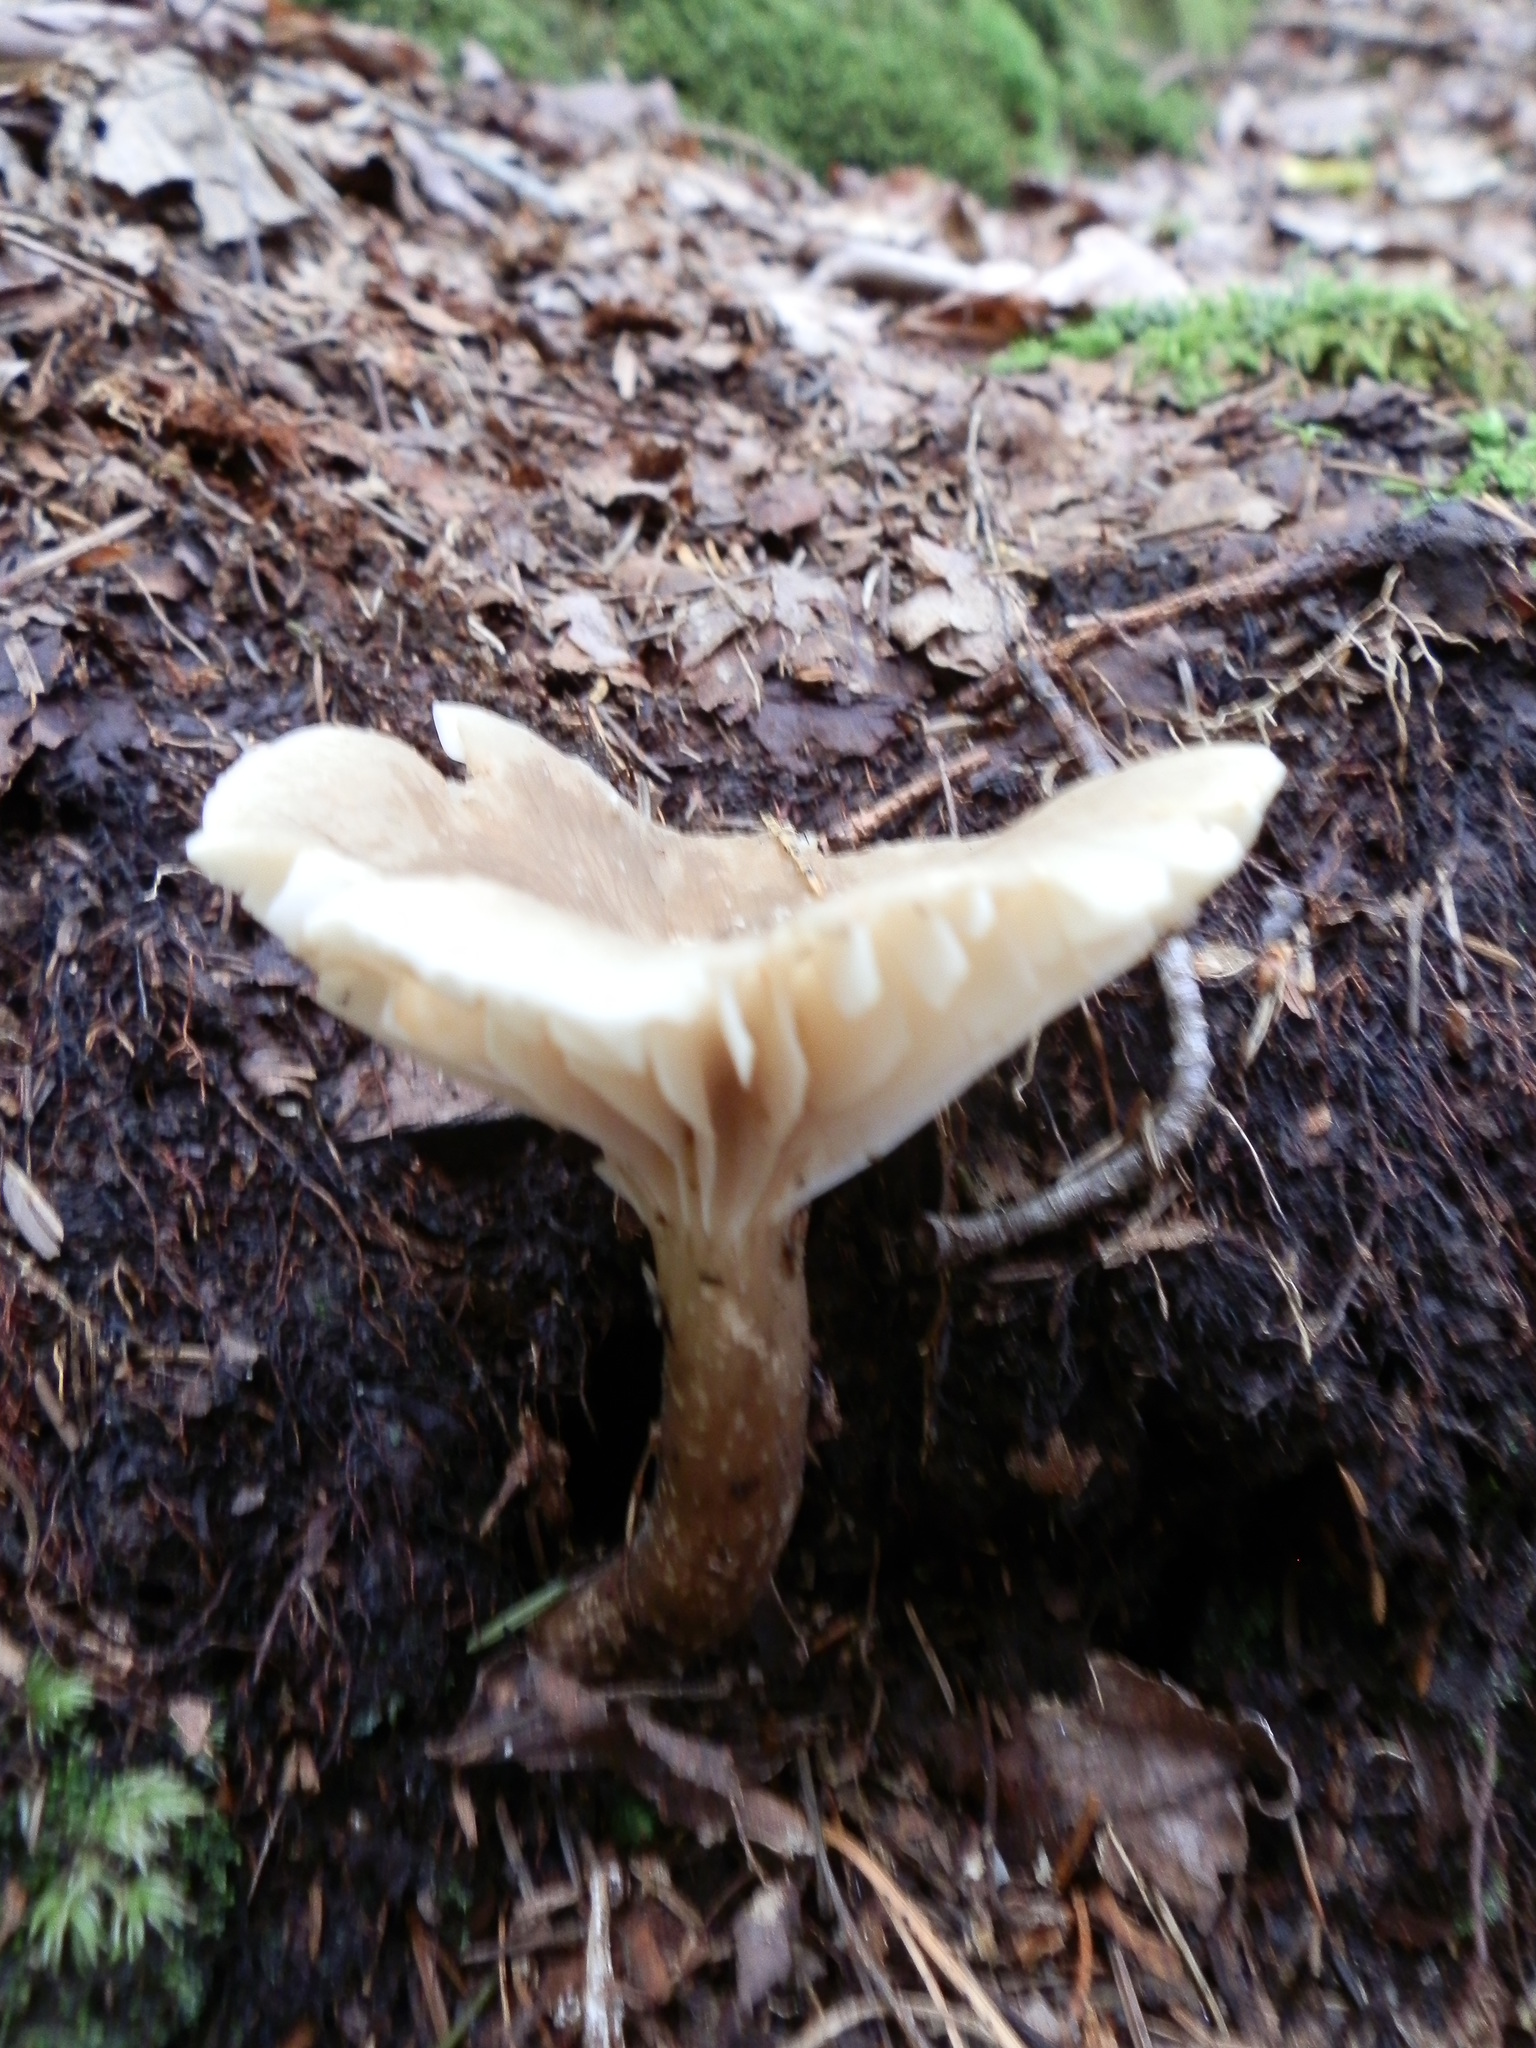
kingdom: Fungi
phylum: Basidiomycota
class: Agaricomycetes
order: Russulales
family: Russulaceae
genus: Lactarius
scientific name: Lactarius gerardii
